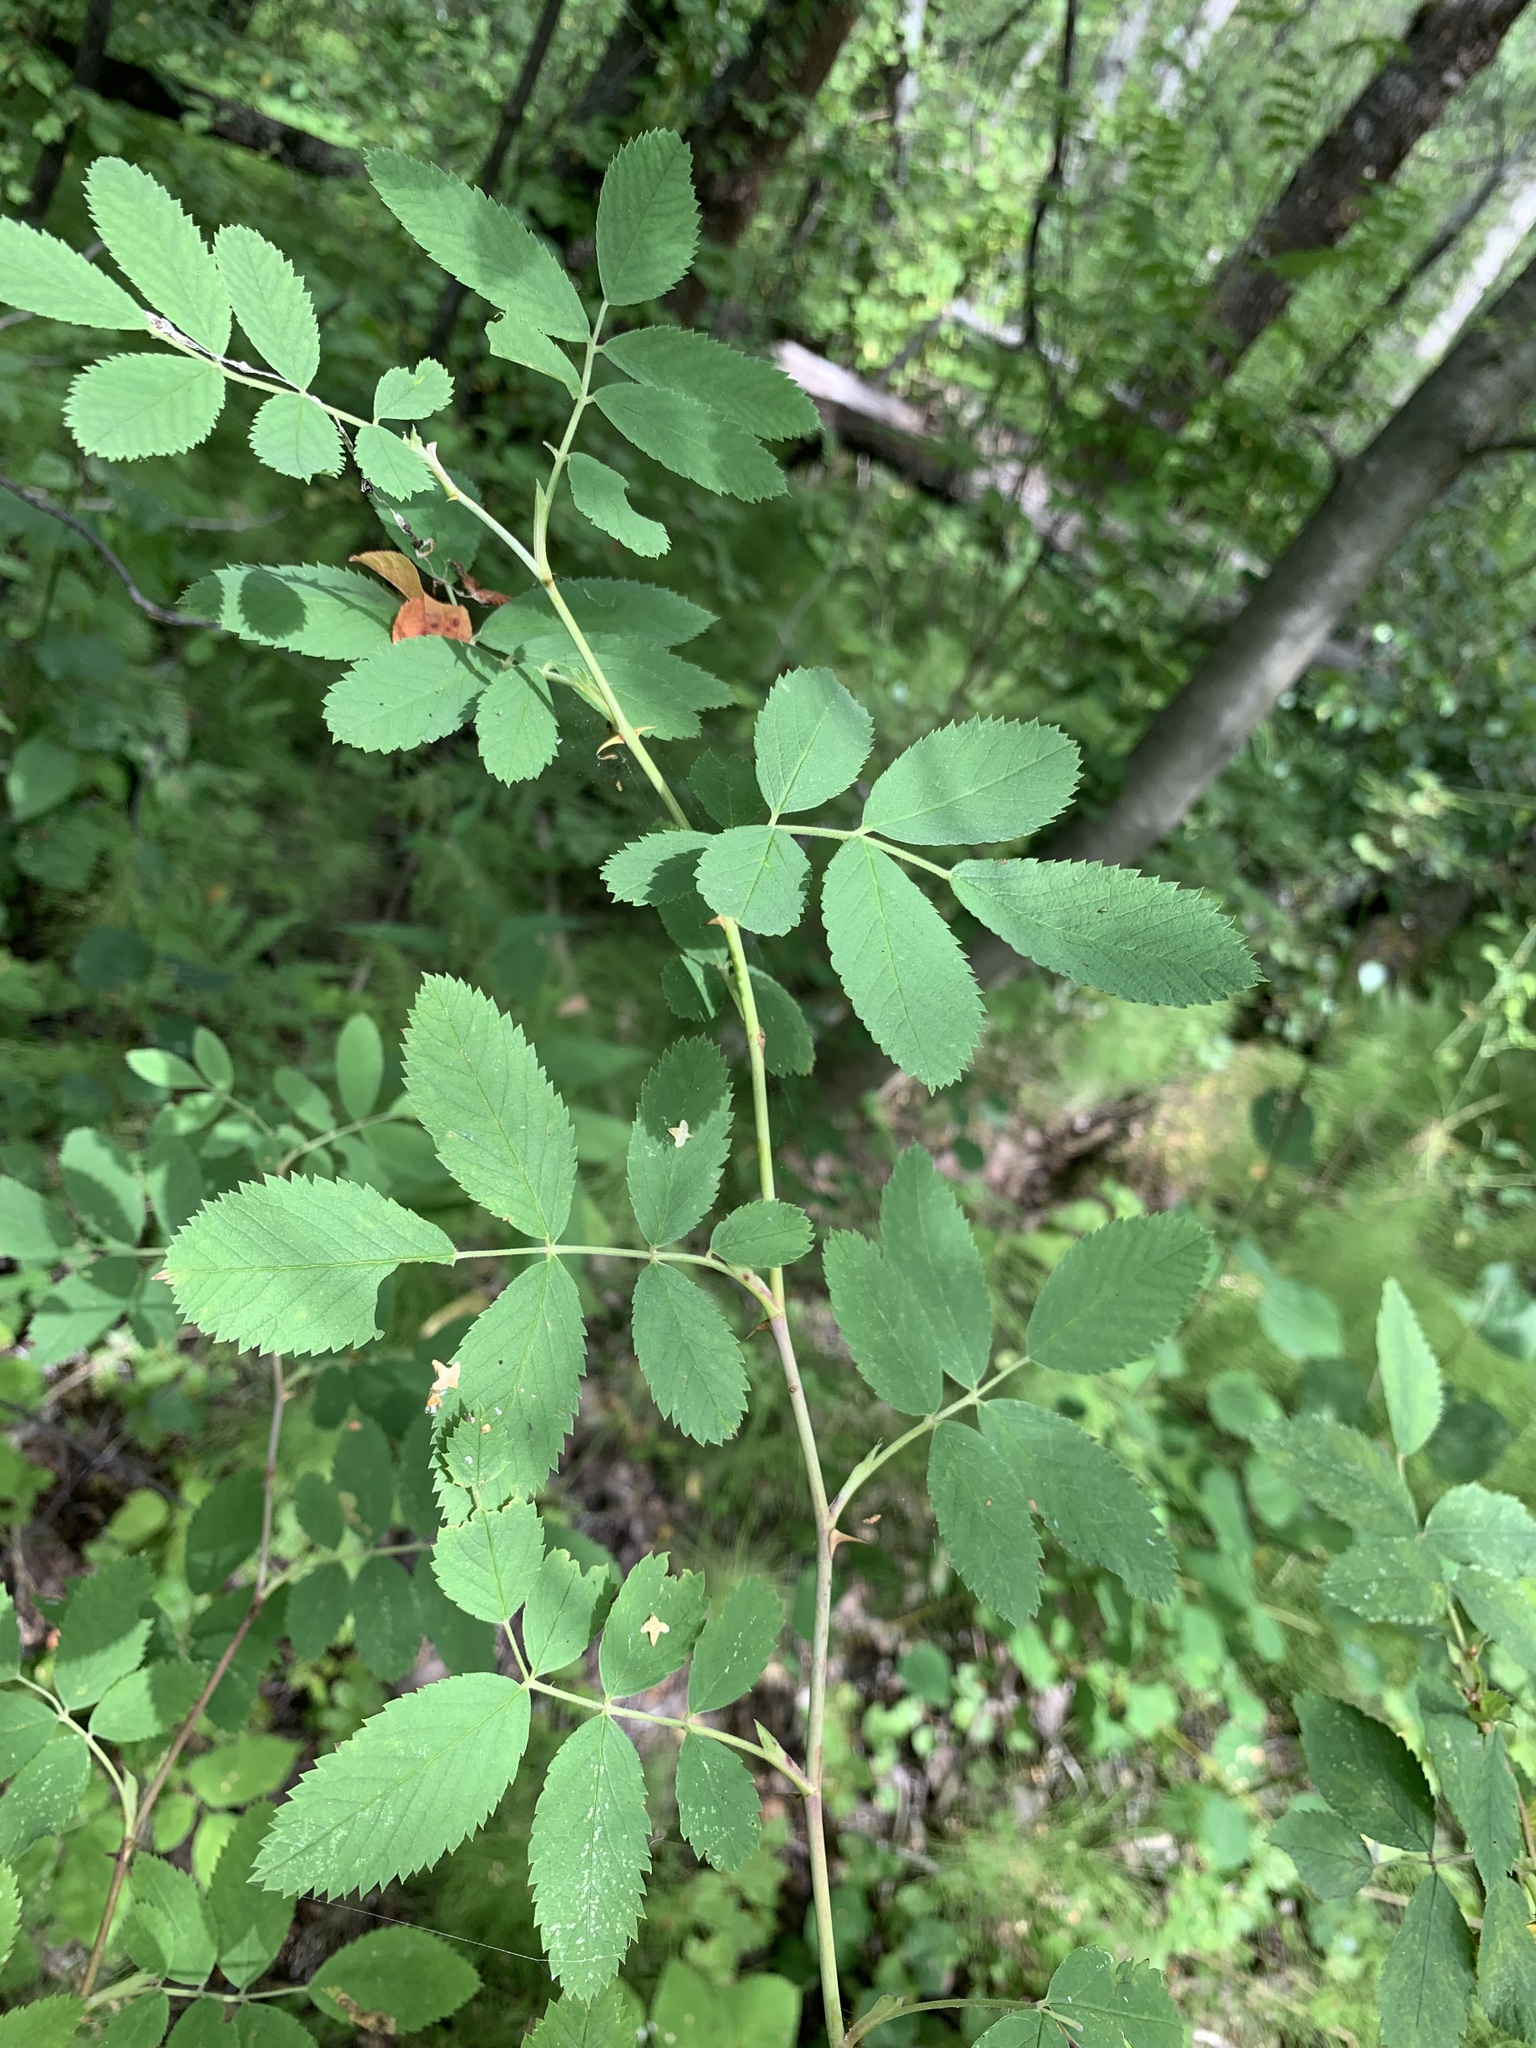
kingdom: Plantae
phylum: Tracheophyta
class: Magnoliopsida
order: Rosales
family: Rosaceae
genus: Rosa
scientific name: Rosa majalis
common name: Cinnamon rose
